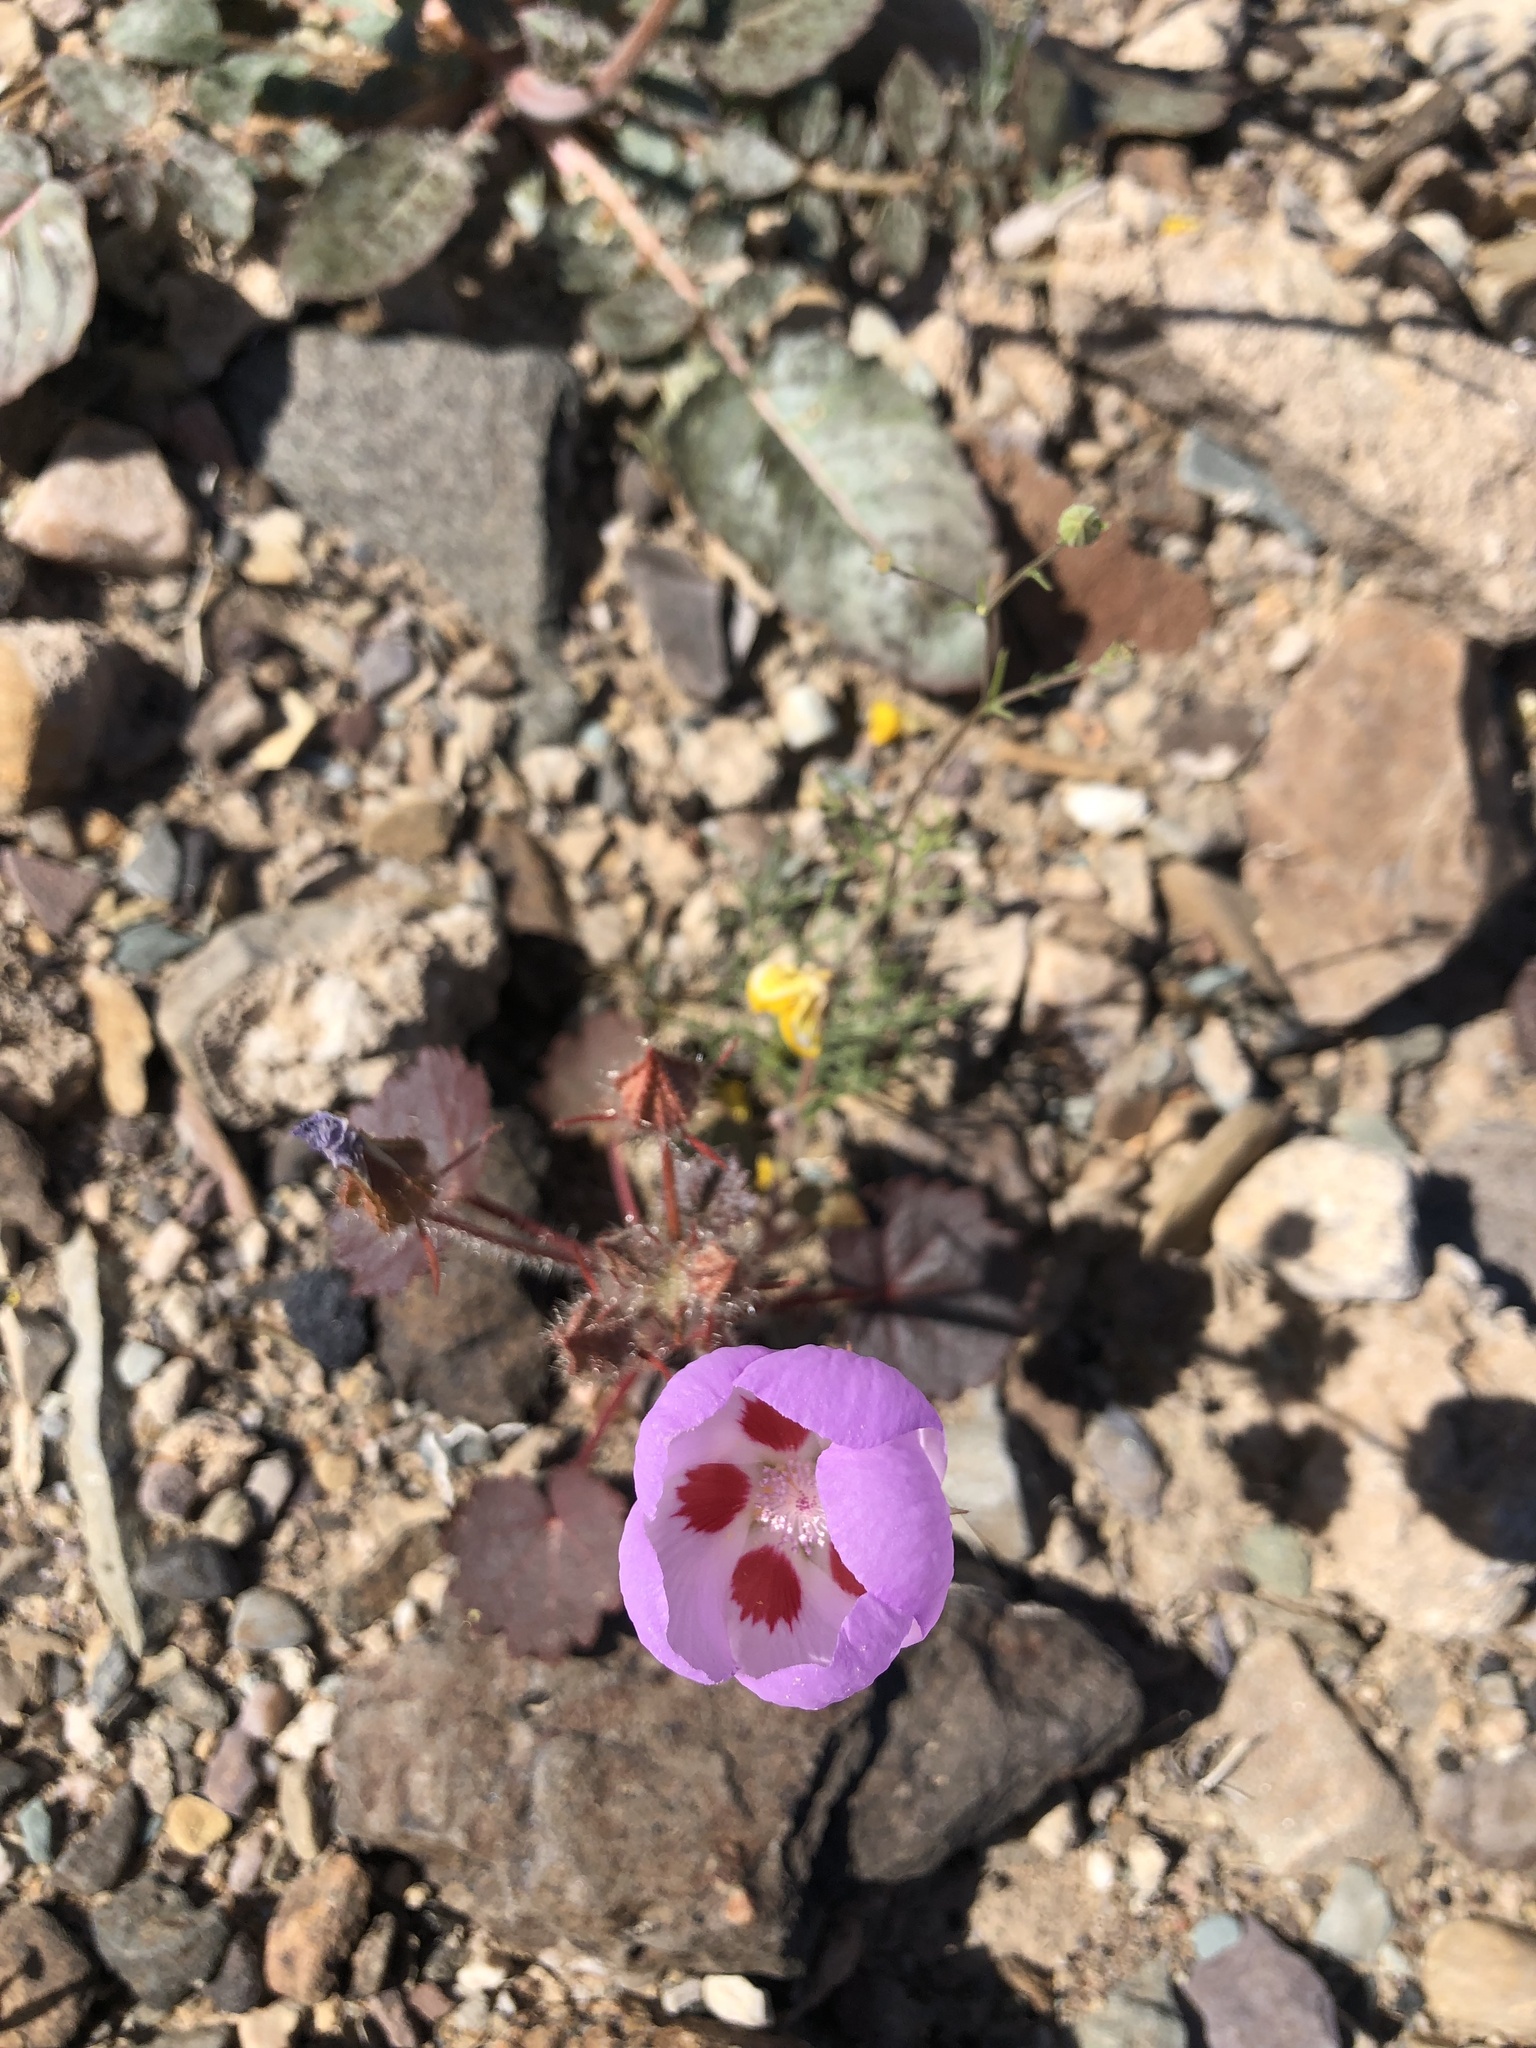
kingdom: Plantae
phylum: Tracheophyta
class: Magnoliopsida
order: Malvales
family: Malvaceae
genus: Eremalche
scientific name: Eremalche rotundifolia
